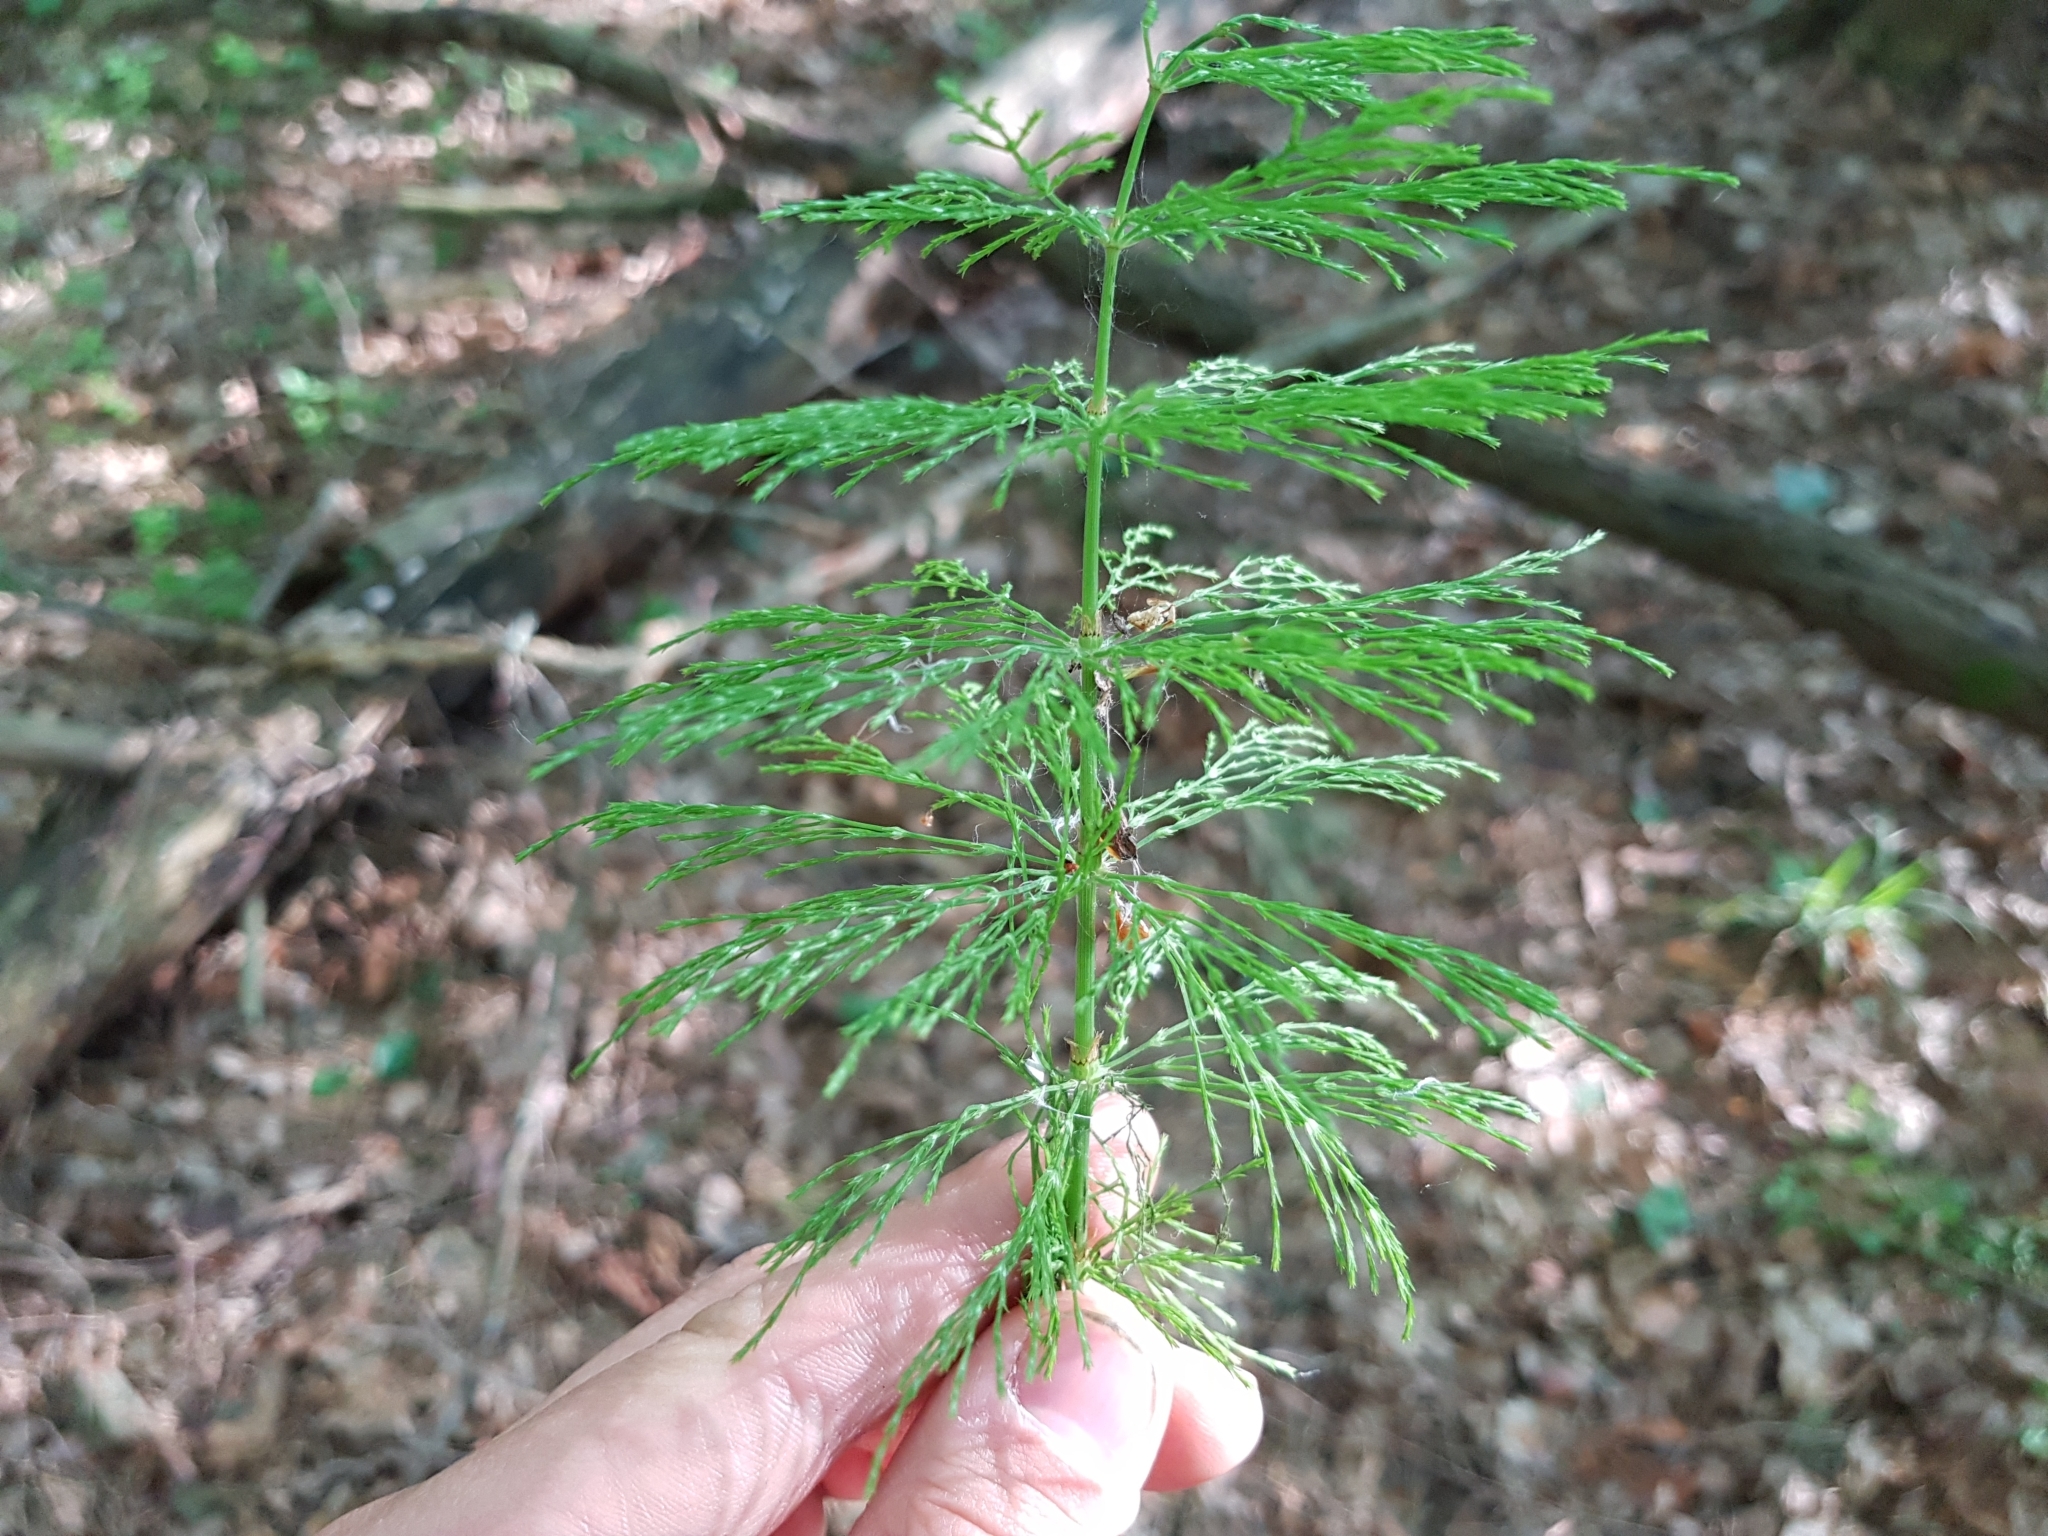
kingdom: Plantae
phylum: Tracheophyta
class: Polypodiopsida
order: Equisetales
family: Equisetaceae
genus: Equisetum
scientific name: Equisetum sylvaticum
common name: Wood horsetail
